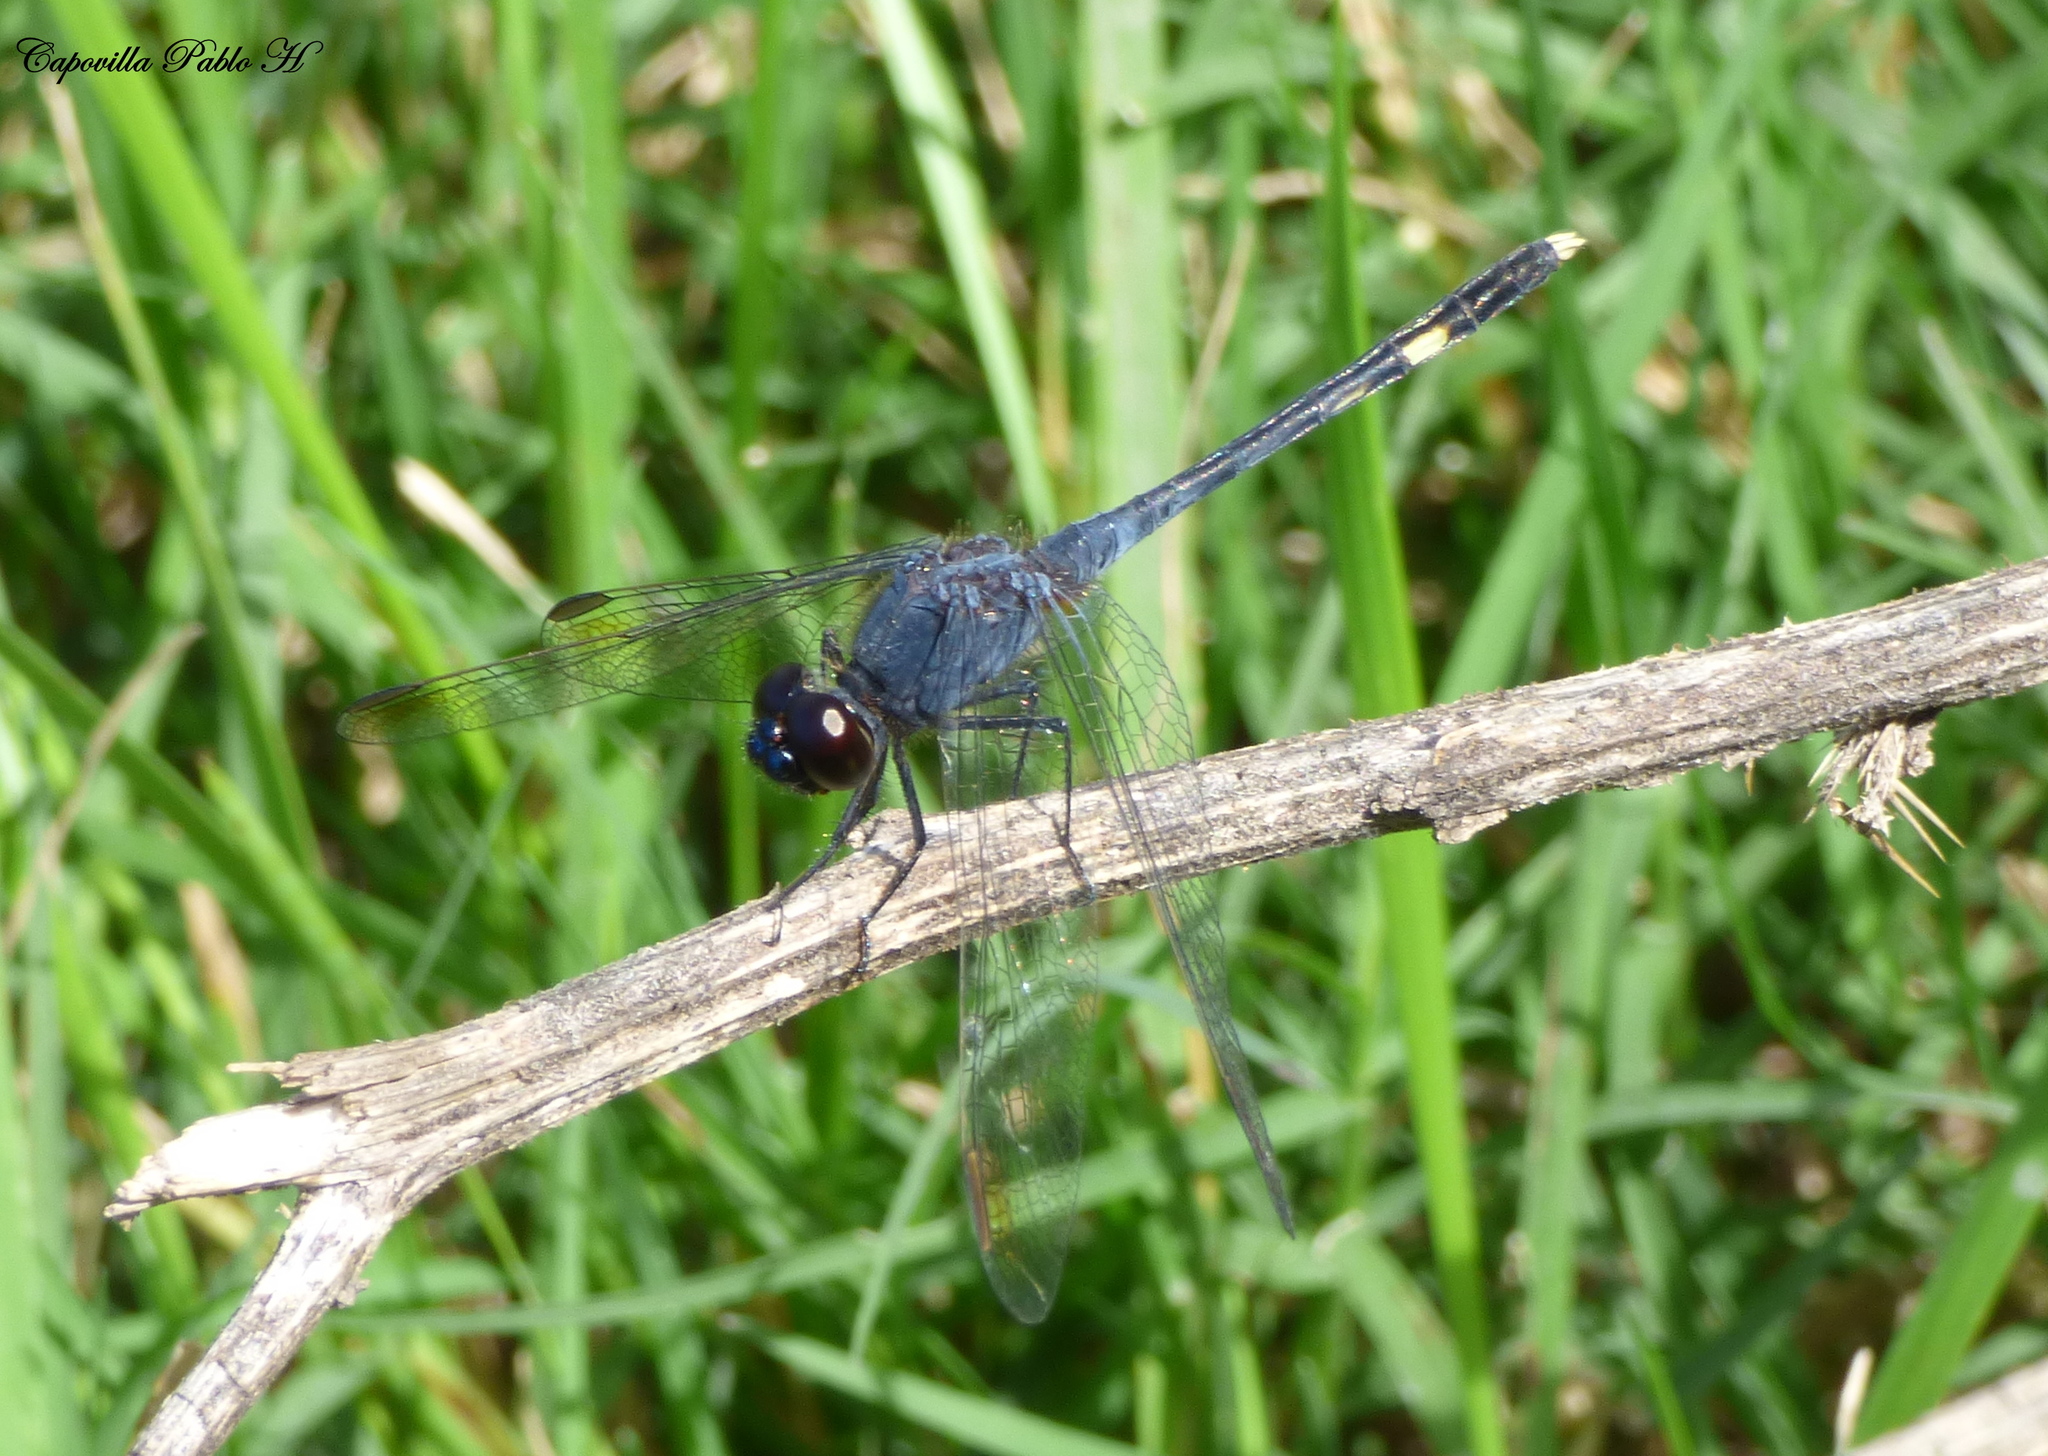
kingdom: Animalia
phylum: Arthropoda
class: Insecta
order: Odonata
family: Libellulidae
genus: Erythrodiplax
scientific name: Erythrodiplax nigricans
